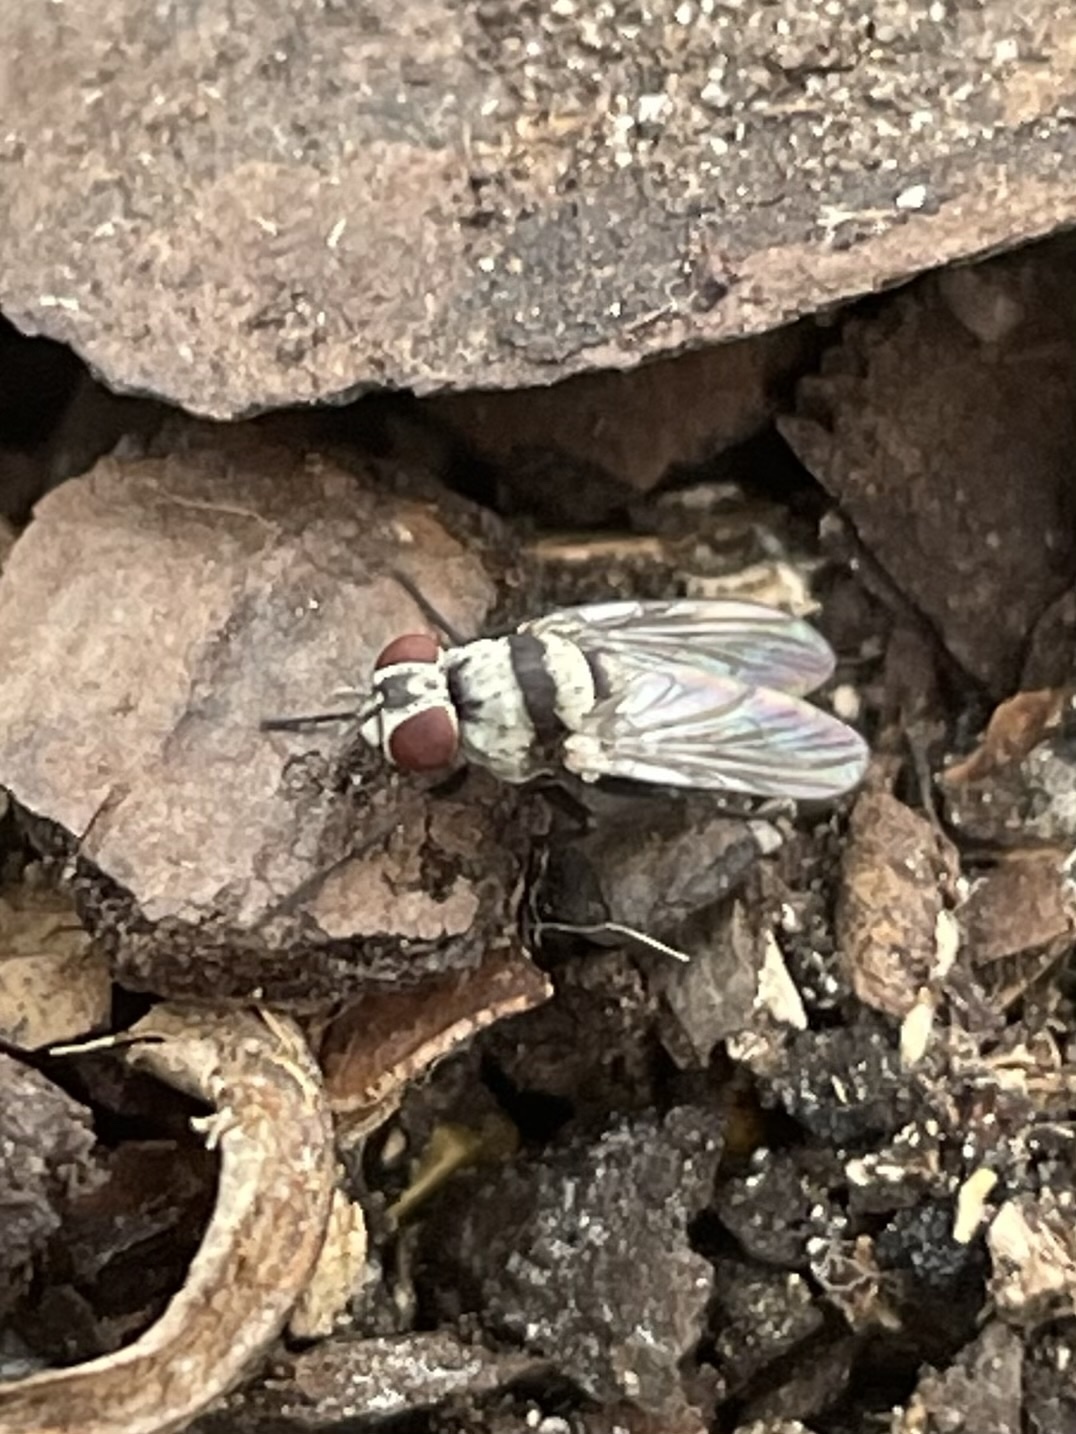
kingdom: Animalia
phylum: Arthropoda
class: Insecta
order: Diptera
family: Anthomyiidae
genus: Anthomyia
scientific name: Anthomyia illocata
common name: Fly
